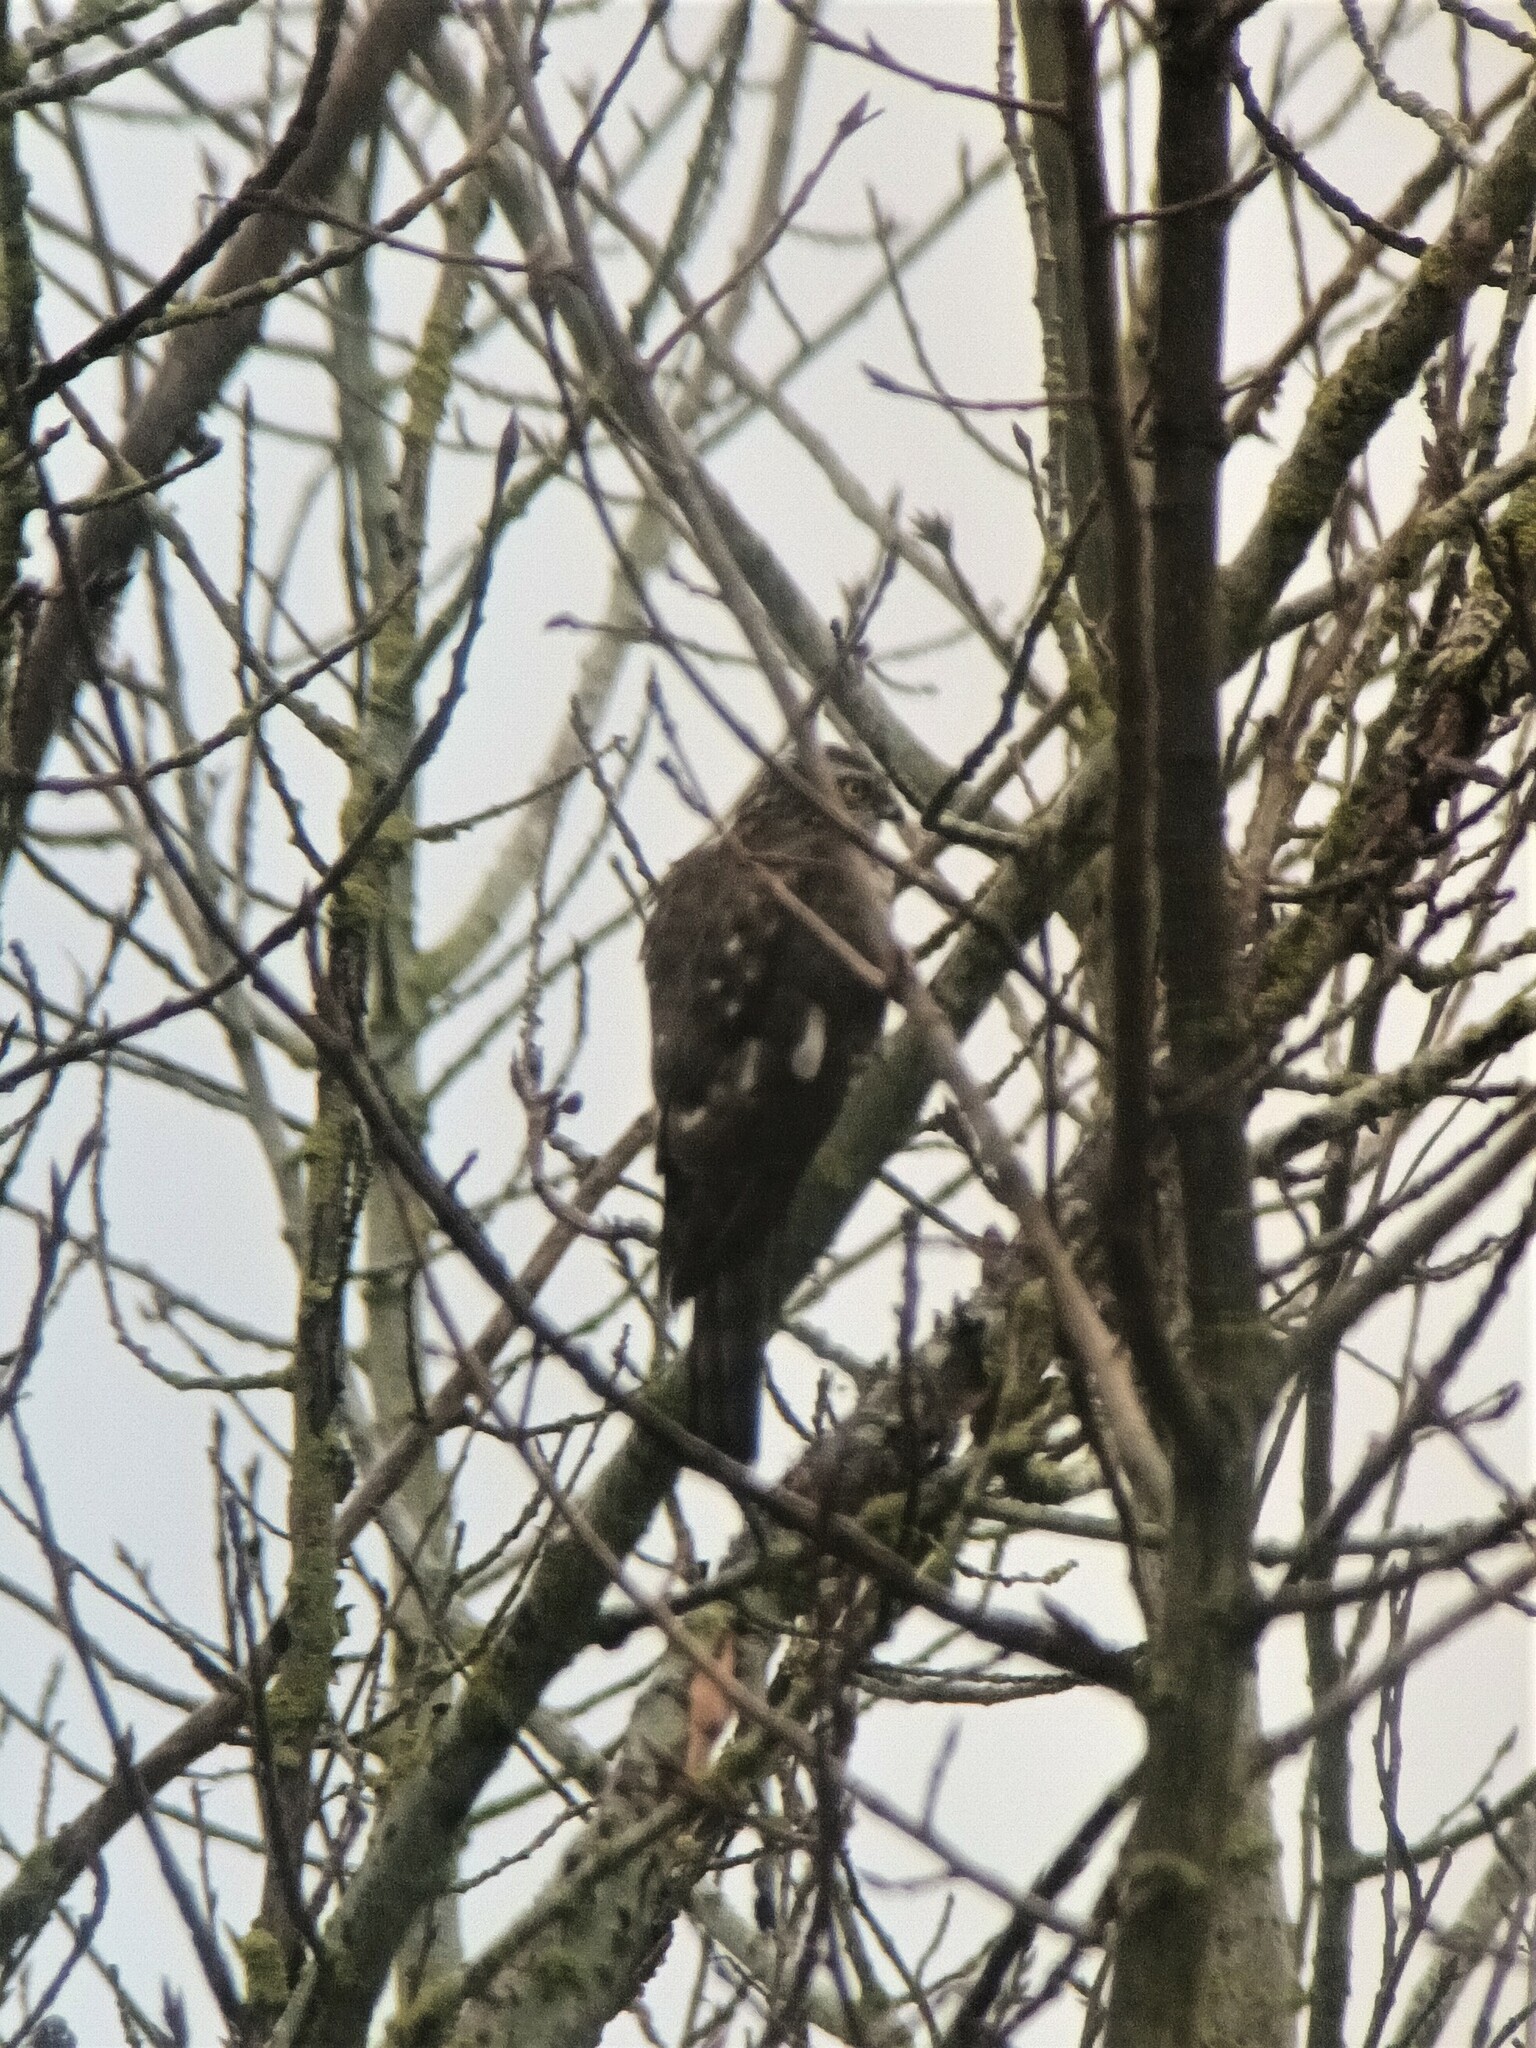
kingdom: Animalia
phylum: Chordata
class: Aves
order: Accipitriformes
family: Accipitridae
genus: Accipiter
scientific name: Accipiter nisus
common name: Eurasian sparrowhawk
